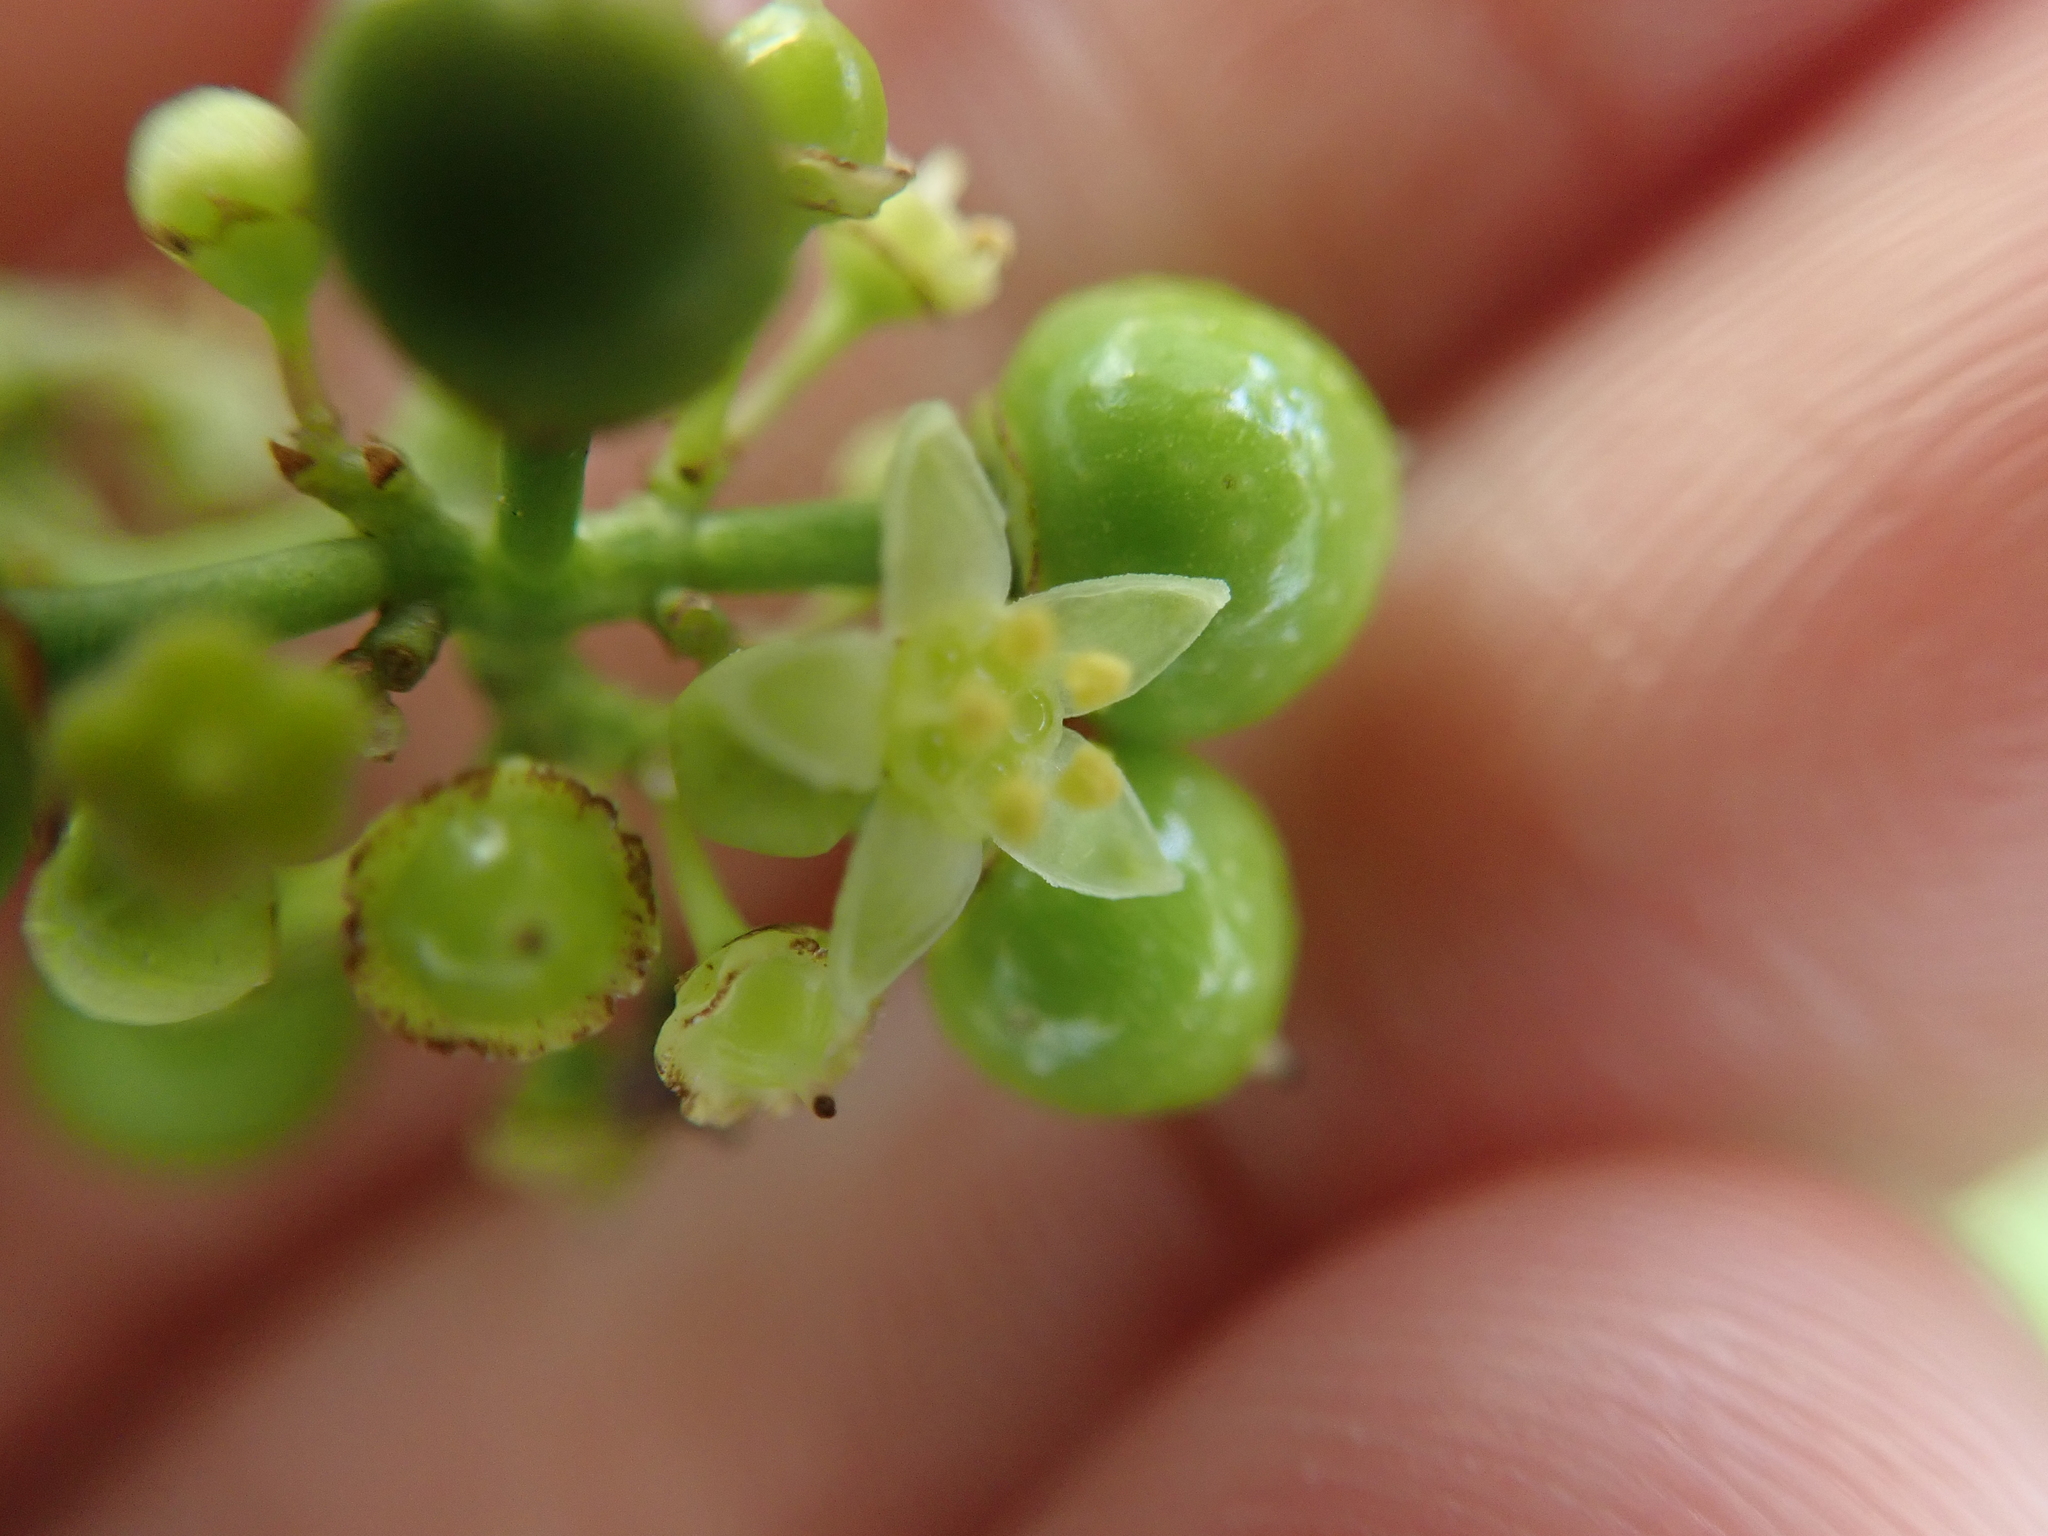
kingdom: Plantae
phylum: Tracheophyta
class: Magnoliopsida
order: Vitales
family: Vitaceae
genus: Ampelopsis
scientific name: Ampelopsis japonica
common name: Japanese peppervine
